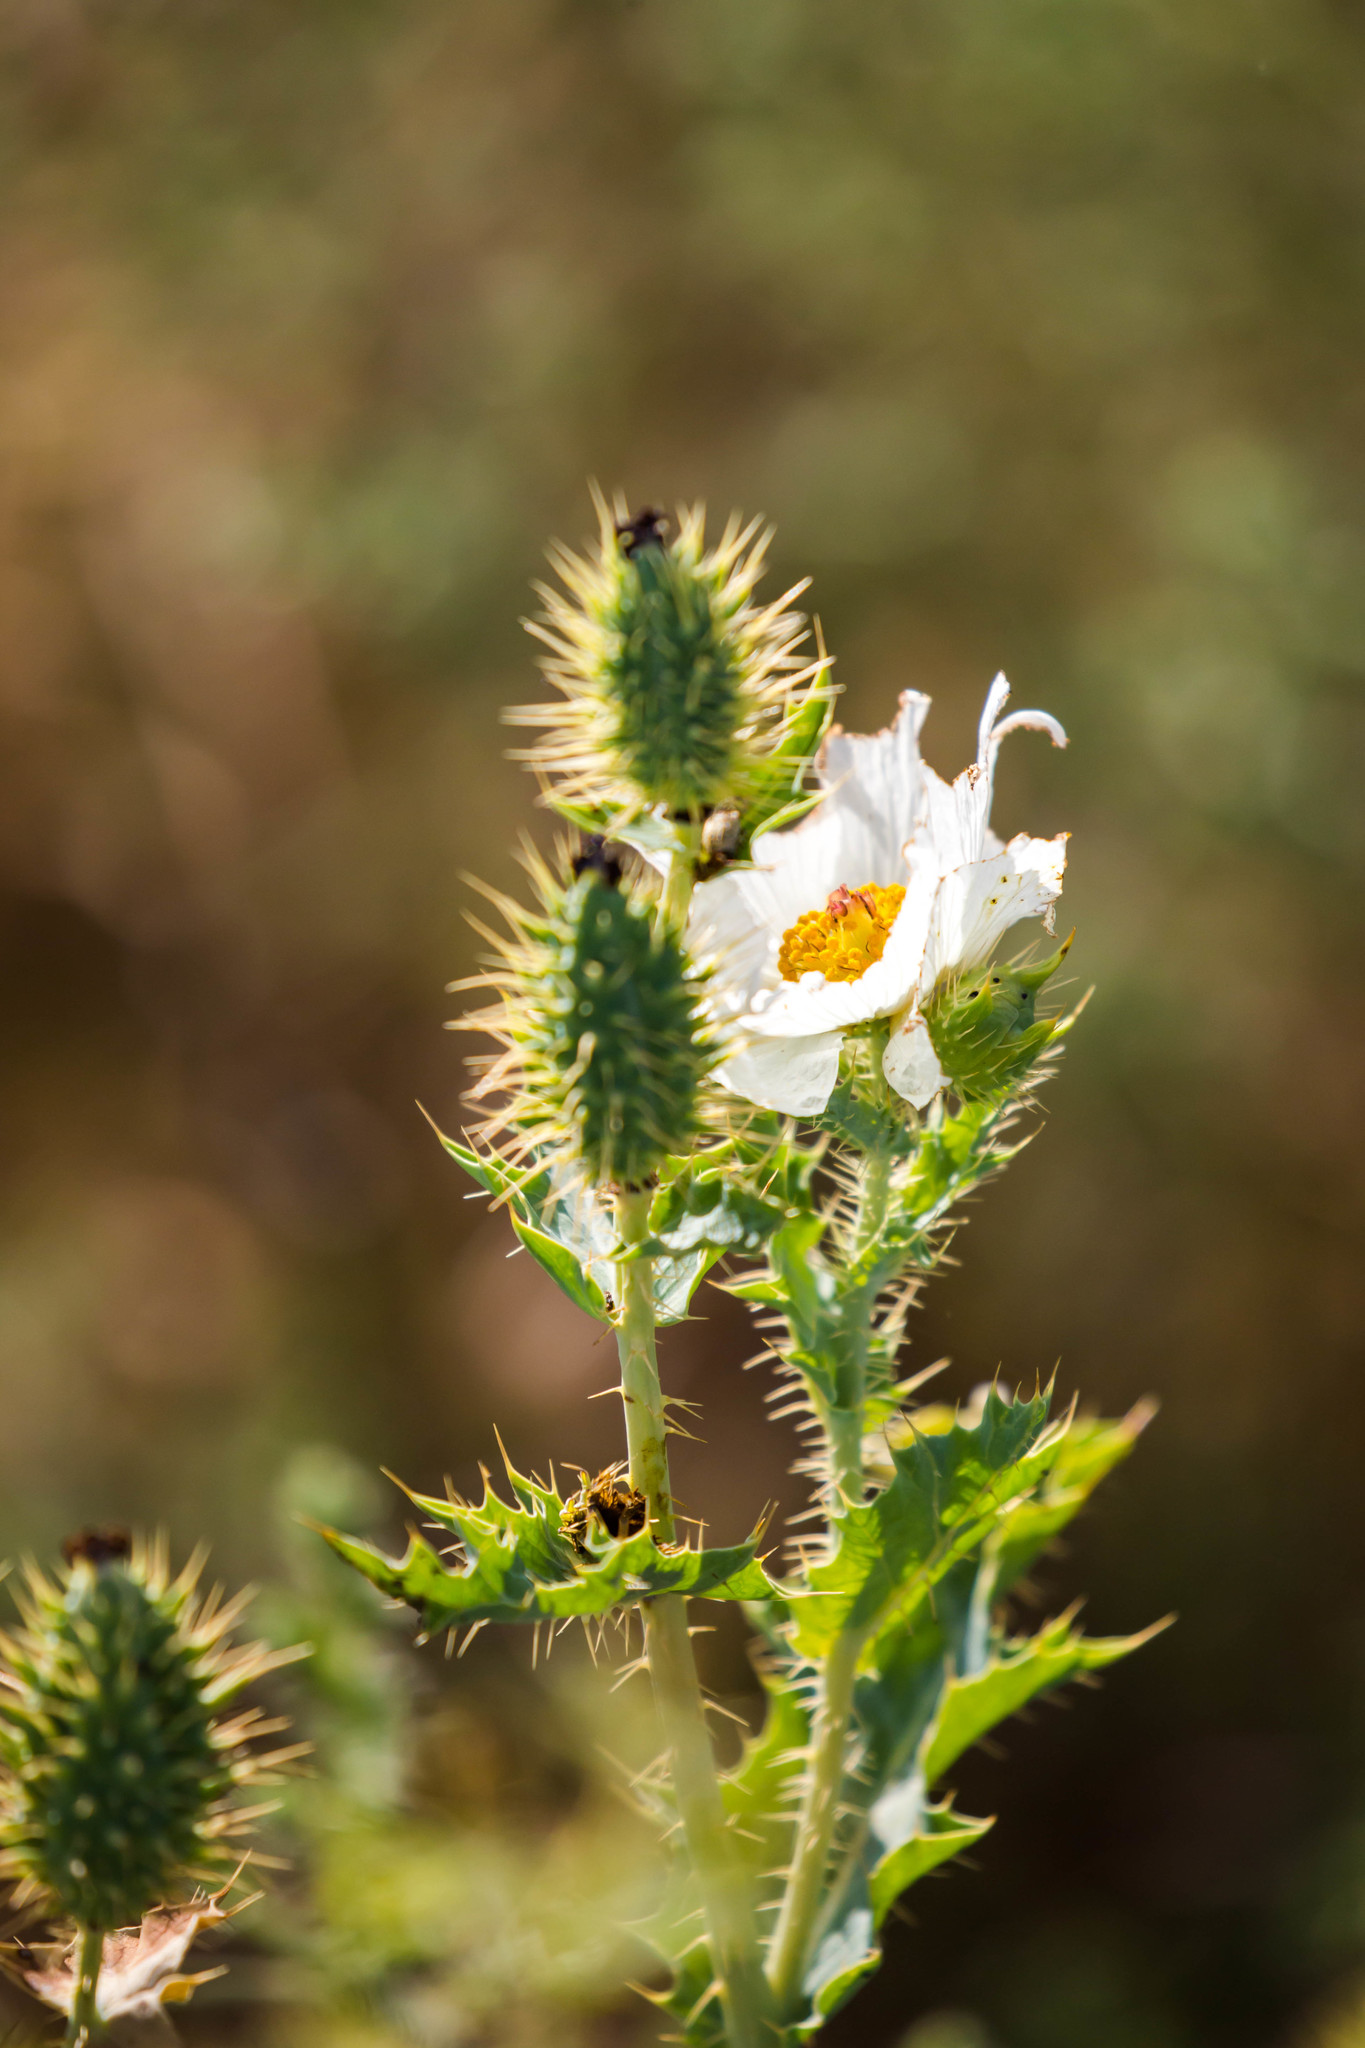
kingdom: Plantae
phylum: Tracheophyta
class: Magnoliopsida
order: Ranunculales
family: Papaveraceae
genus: Argemone
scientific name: Argemone polyanthemos
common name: Plains prickly-poppy
